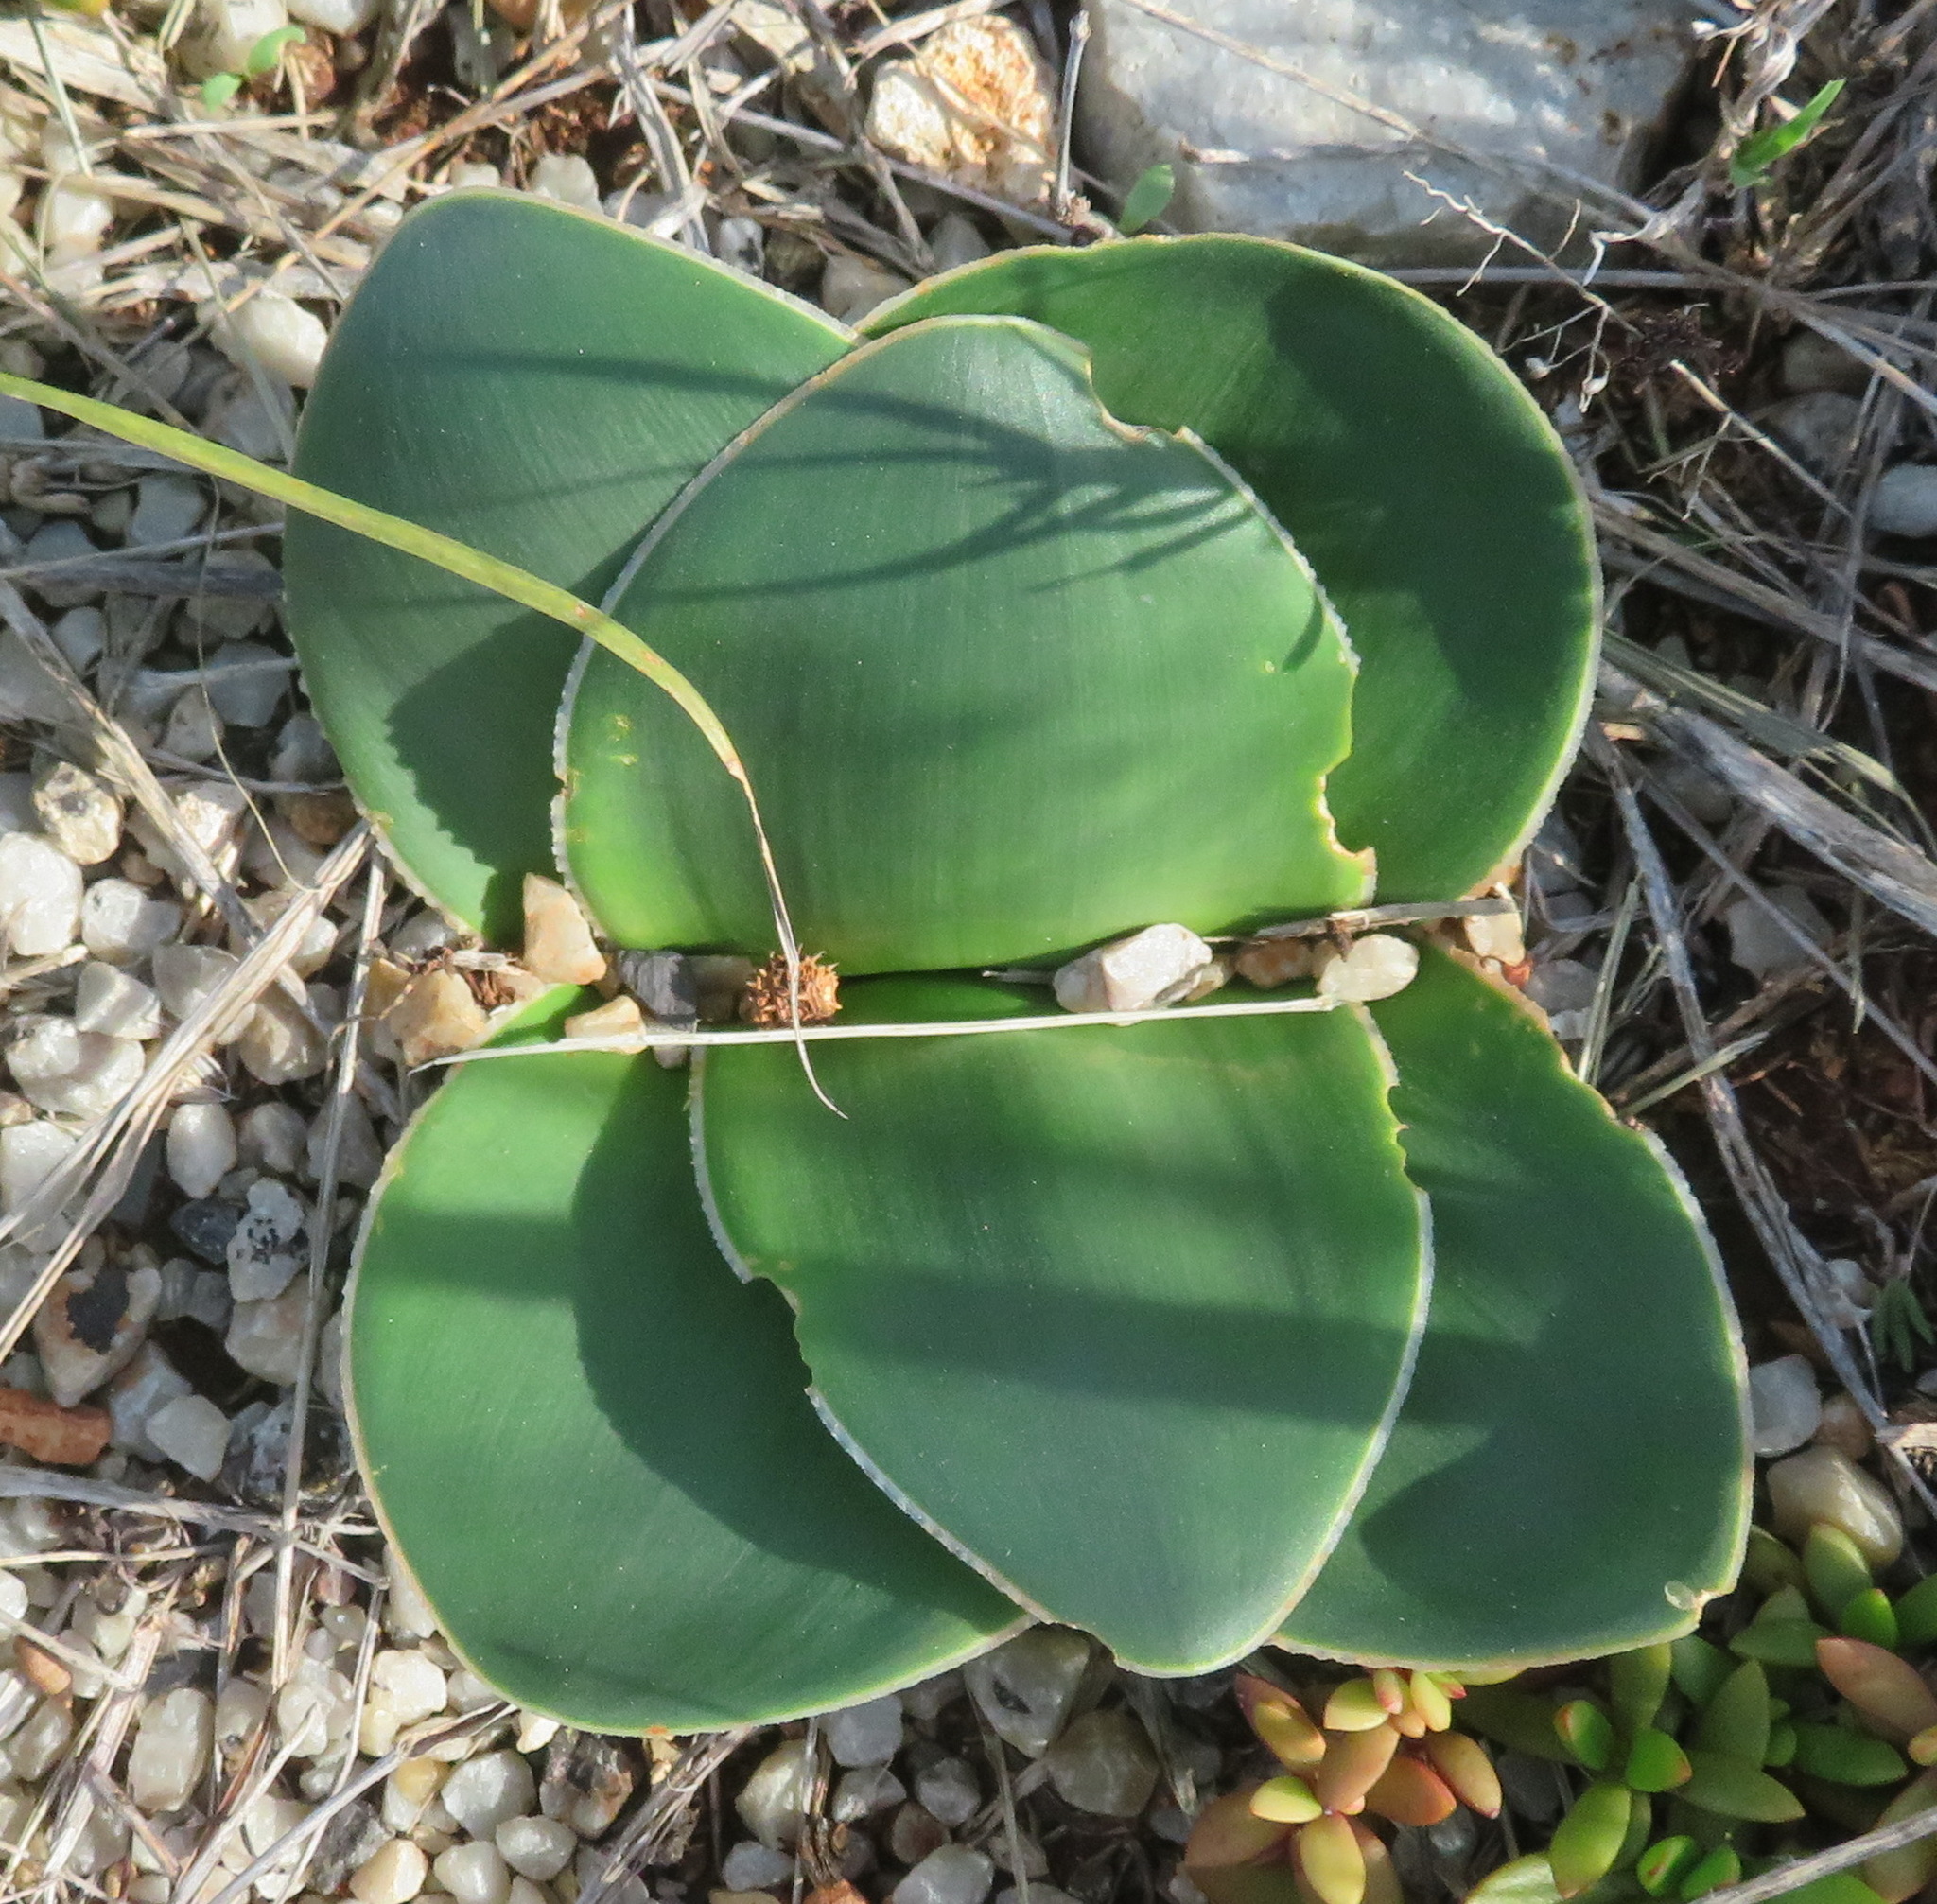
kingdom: Plantae
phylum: Tracheophyta
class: Liliopsida
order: Asparagales
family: Amaryllidaceae
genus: Brunsvigia
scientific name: Brunsvigia gregaria
